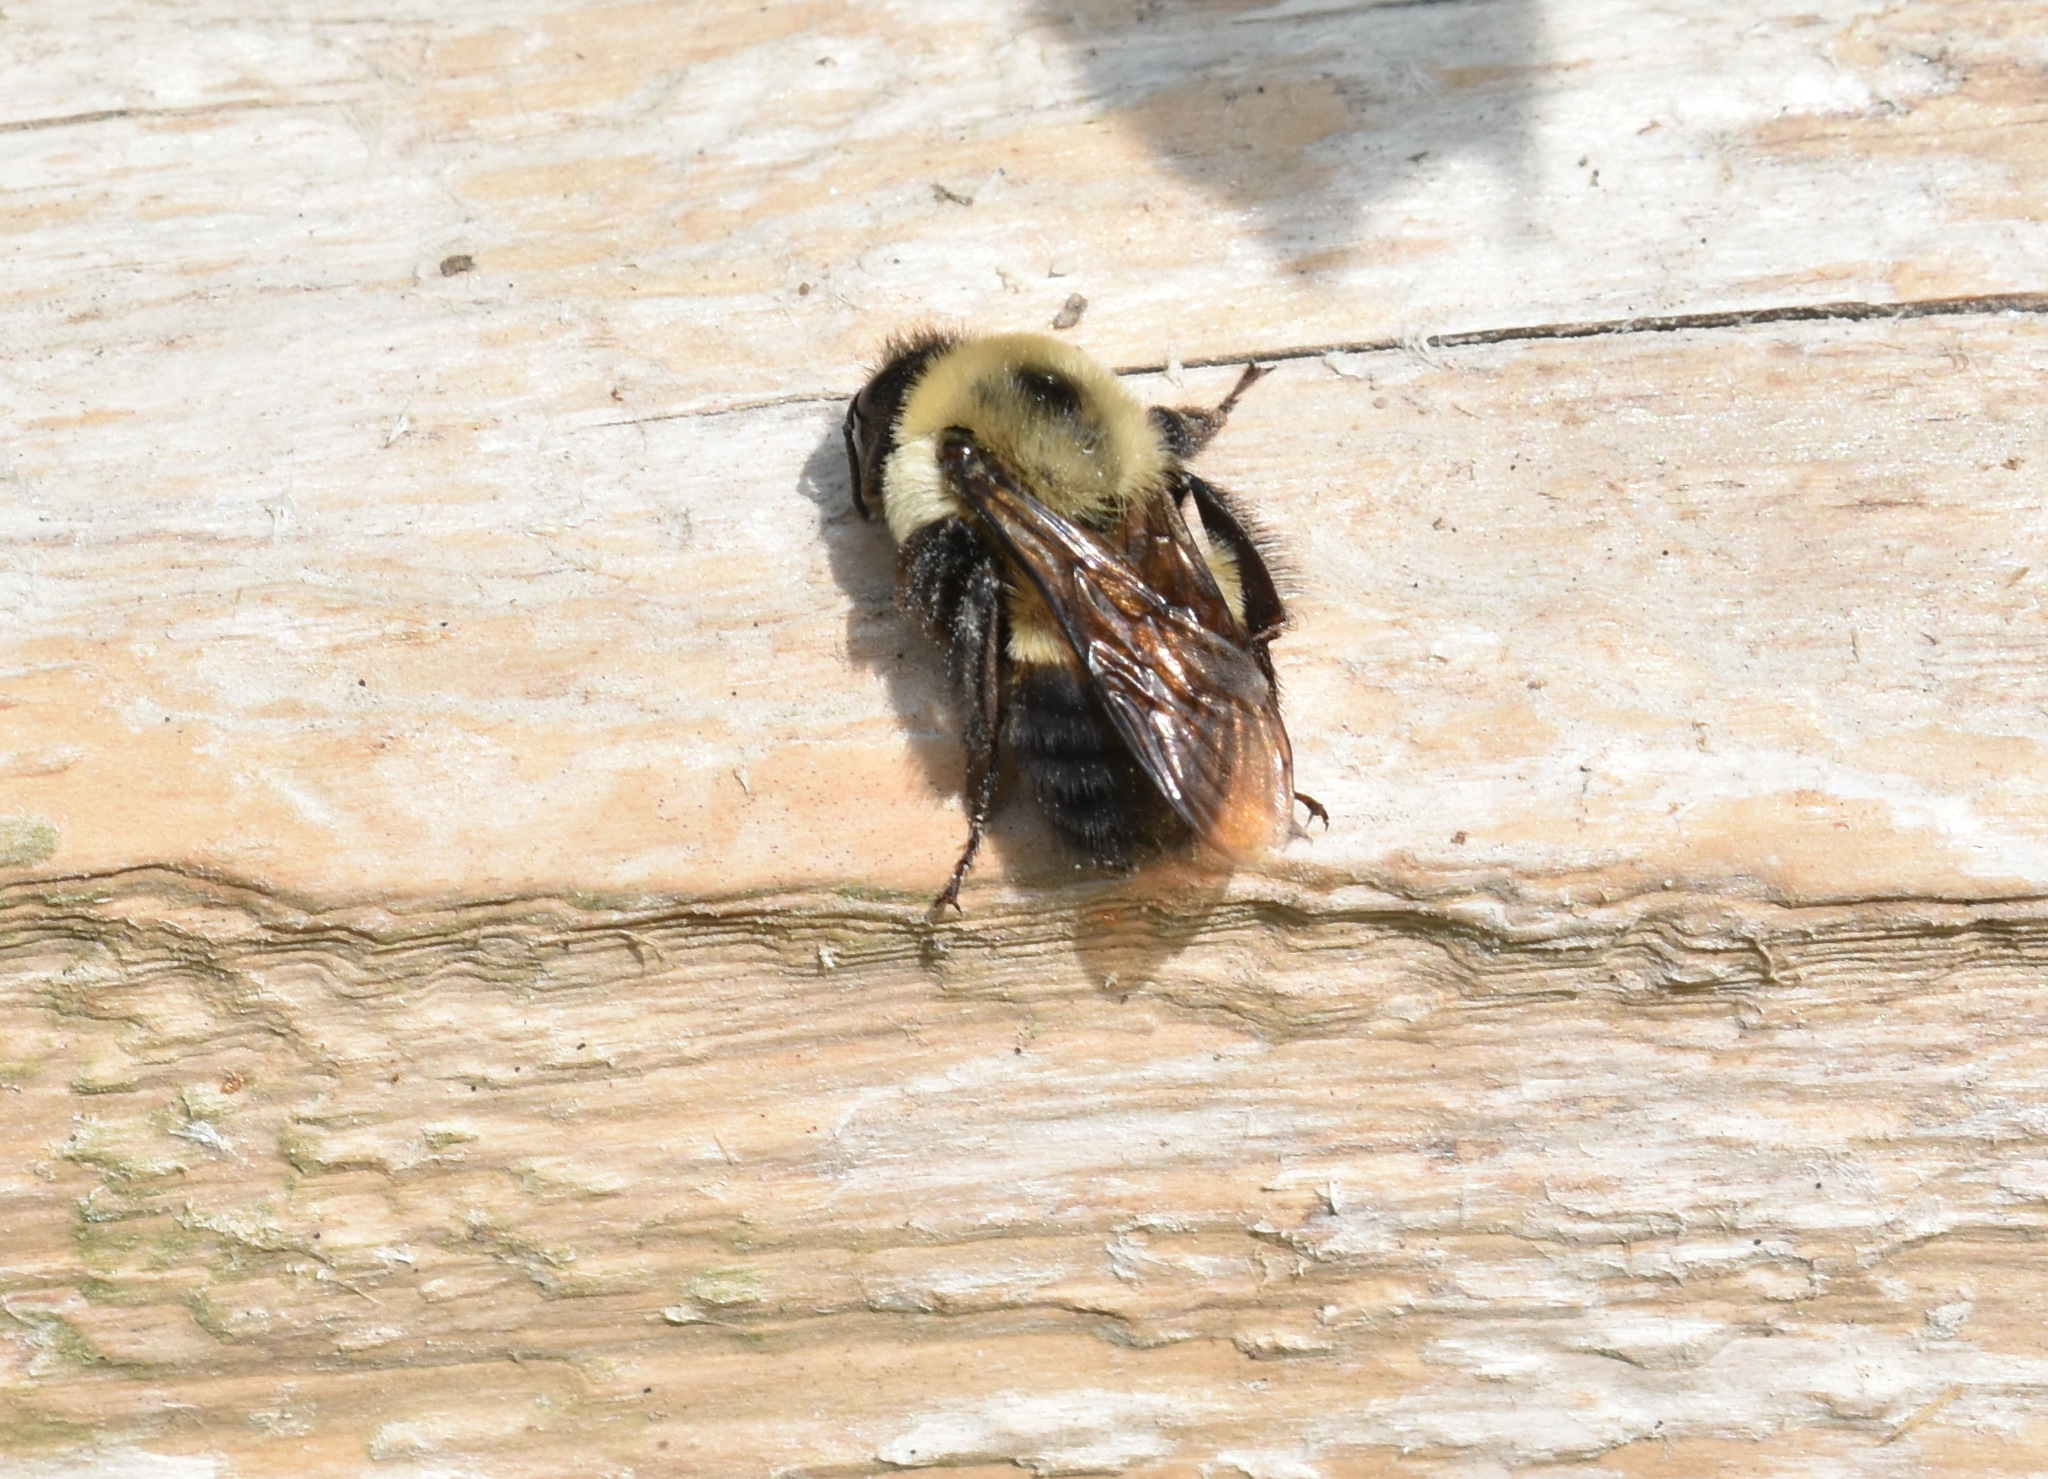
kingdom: Animalia
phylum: Arthropoda
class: Insecta
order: Hymenoptera
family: Apidae
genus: Bombus
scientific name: Bombus griseocollis
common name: Brown-belted bumble bee
